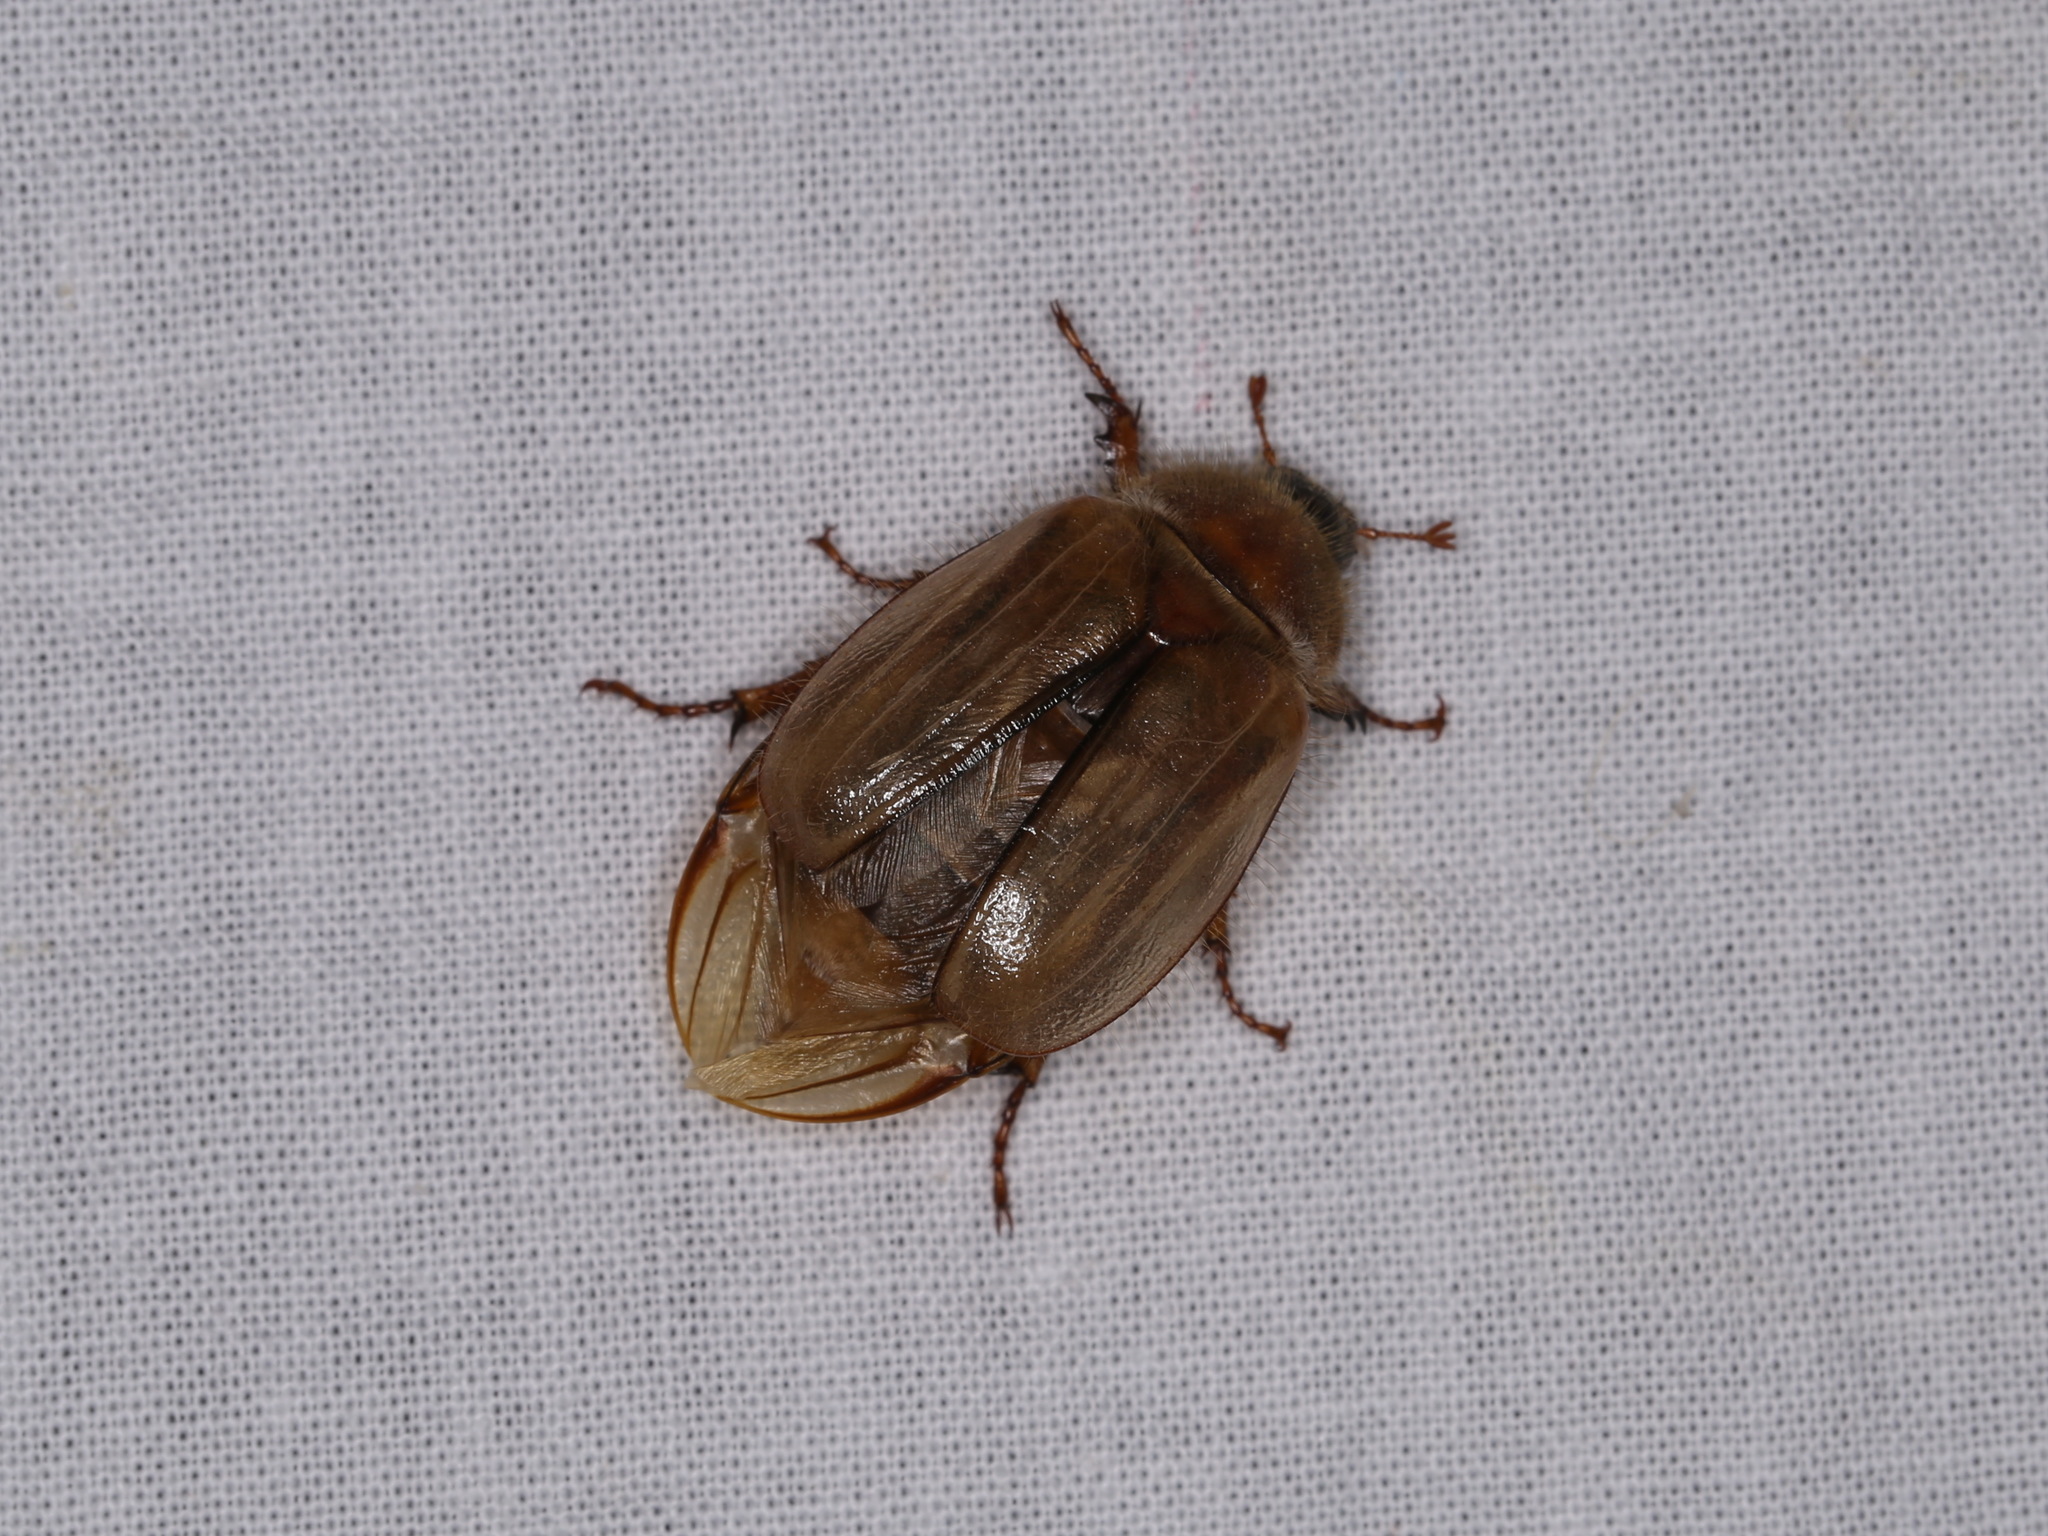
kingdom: Animalia
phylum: Arthropoda
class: Insecta
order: Coleoptera
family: Scarabaeidae
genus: Amphimallon
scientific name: Amphimallon solstitiale
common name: Summer chafer
